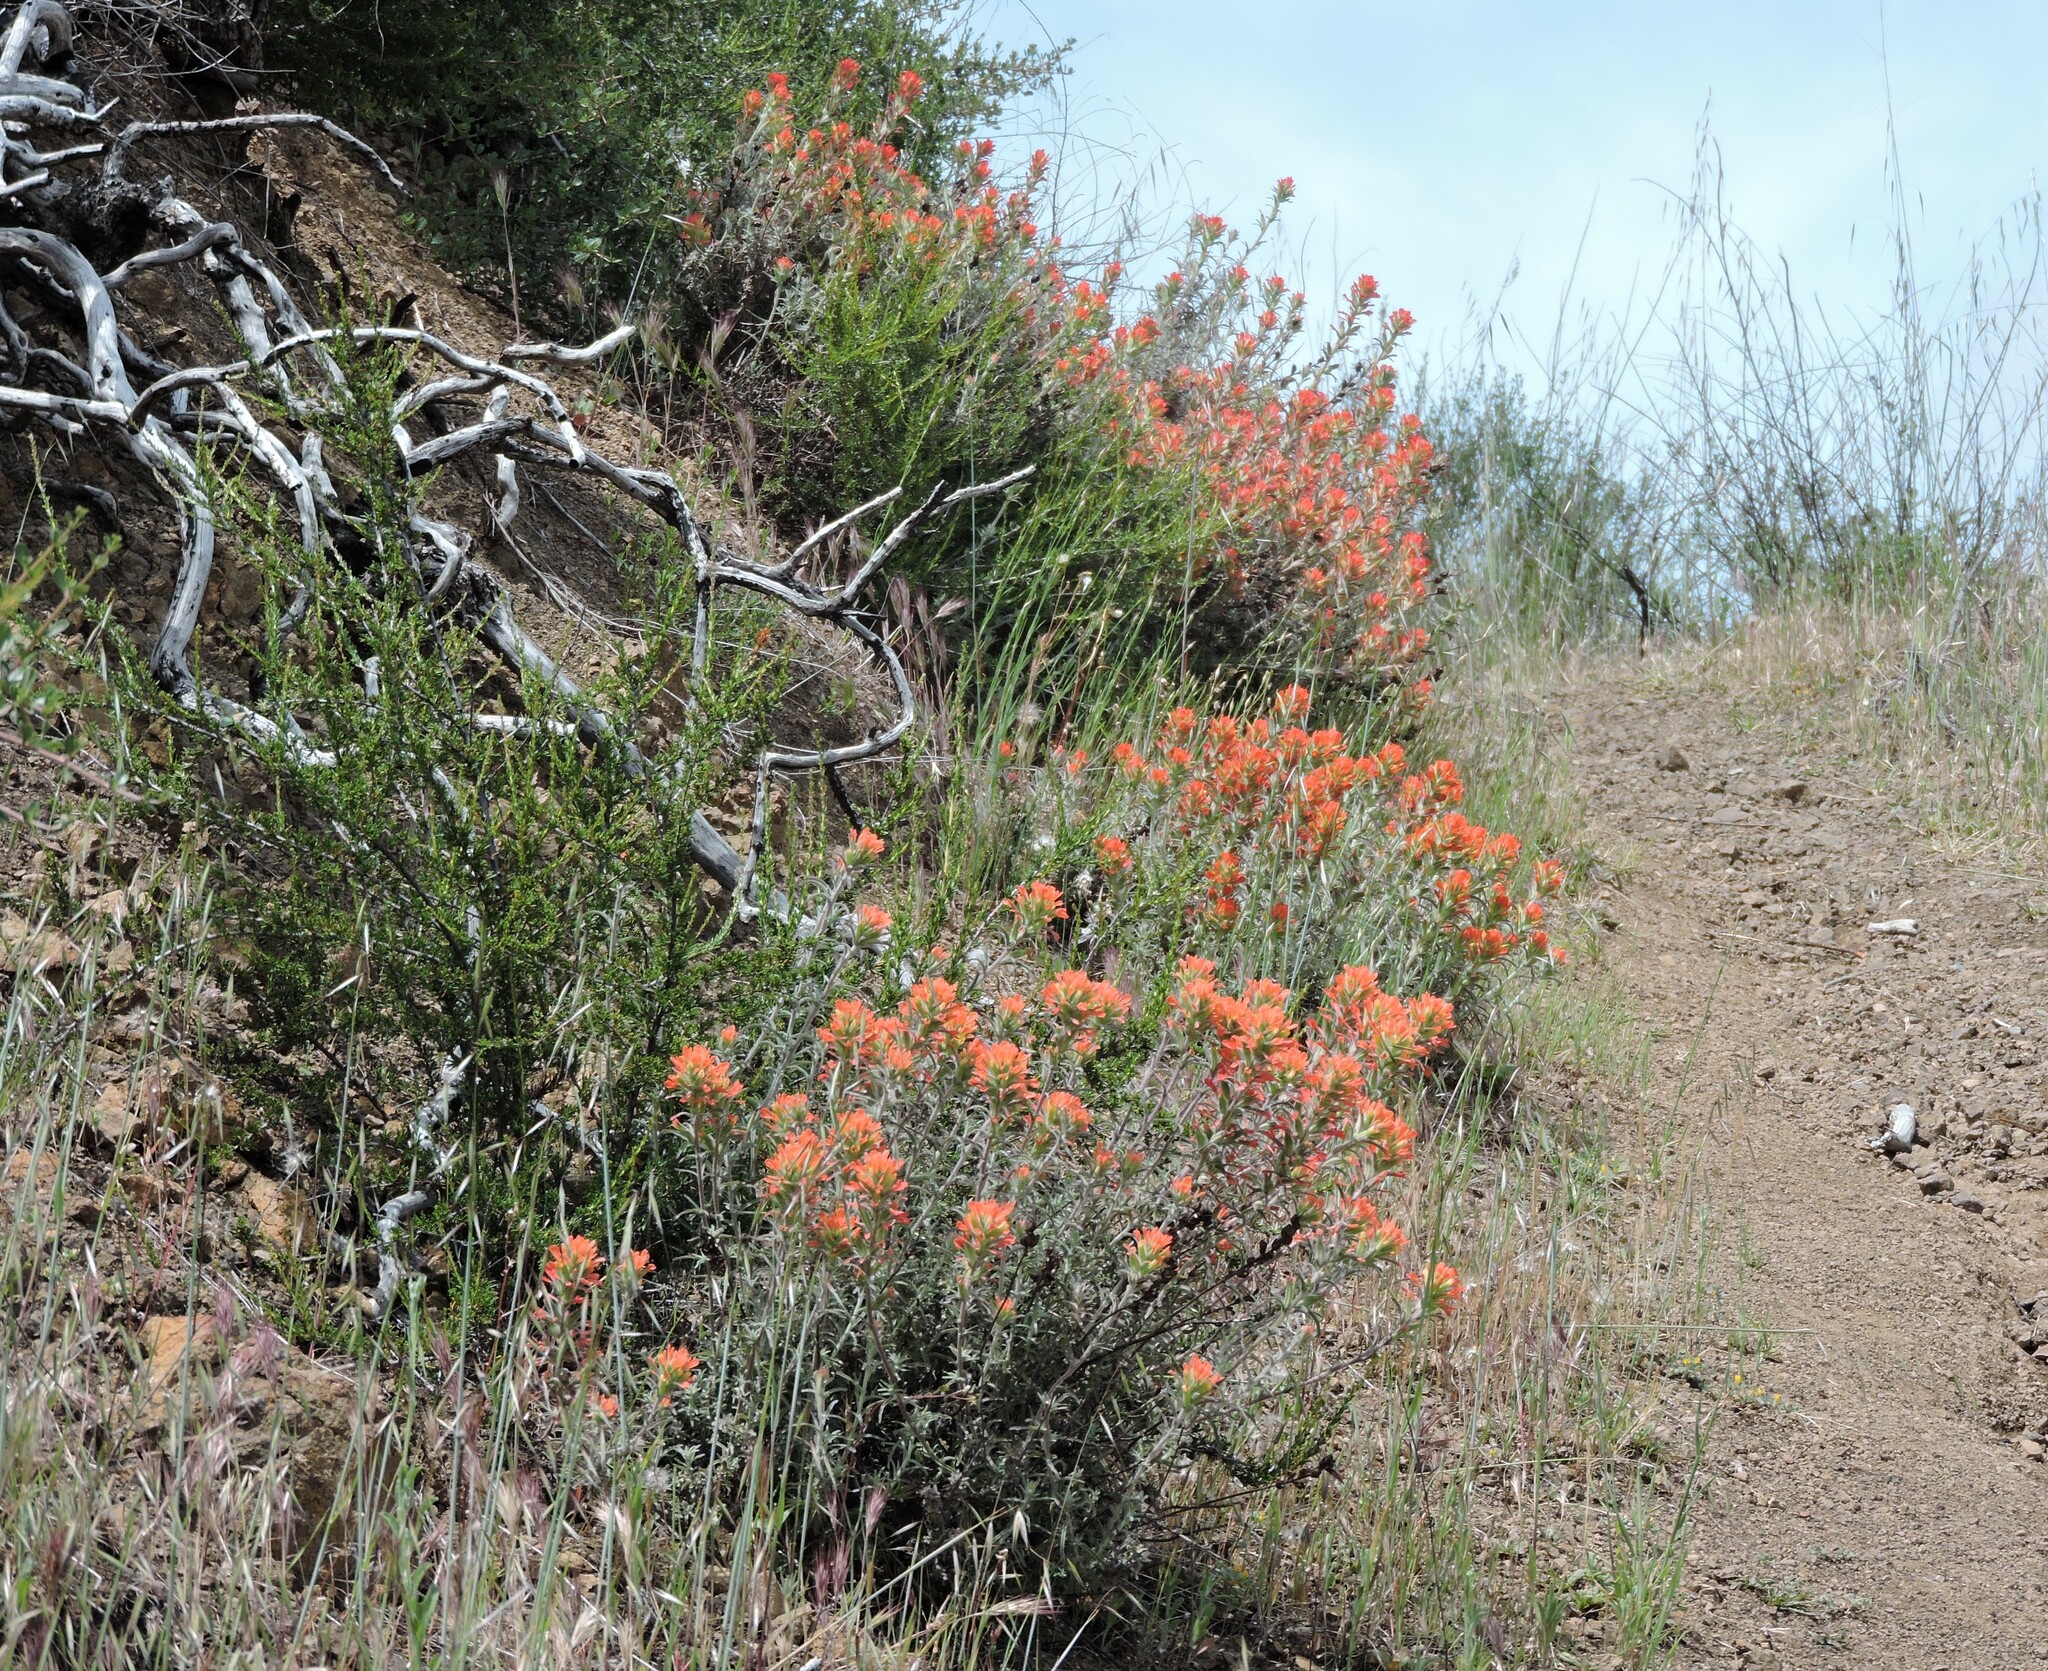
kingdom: Plantae
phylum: Tracheophyta
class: Magnoliopsida
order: Lamiales
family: Orobanchaceae
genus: Castilleja
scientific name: Castilleja foliolosa
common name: Woolly indian paintbrush
